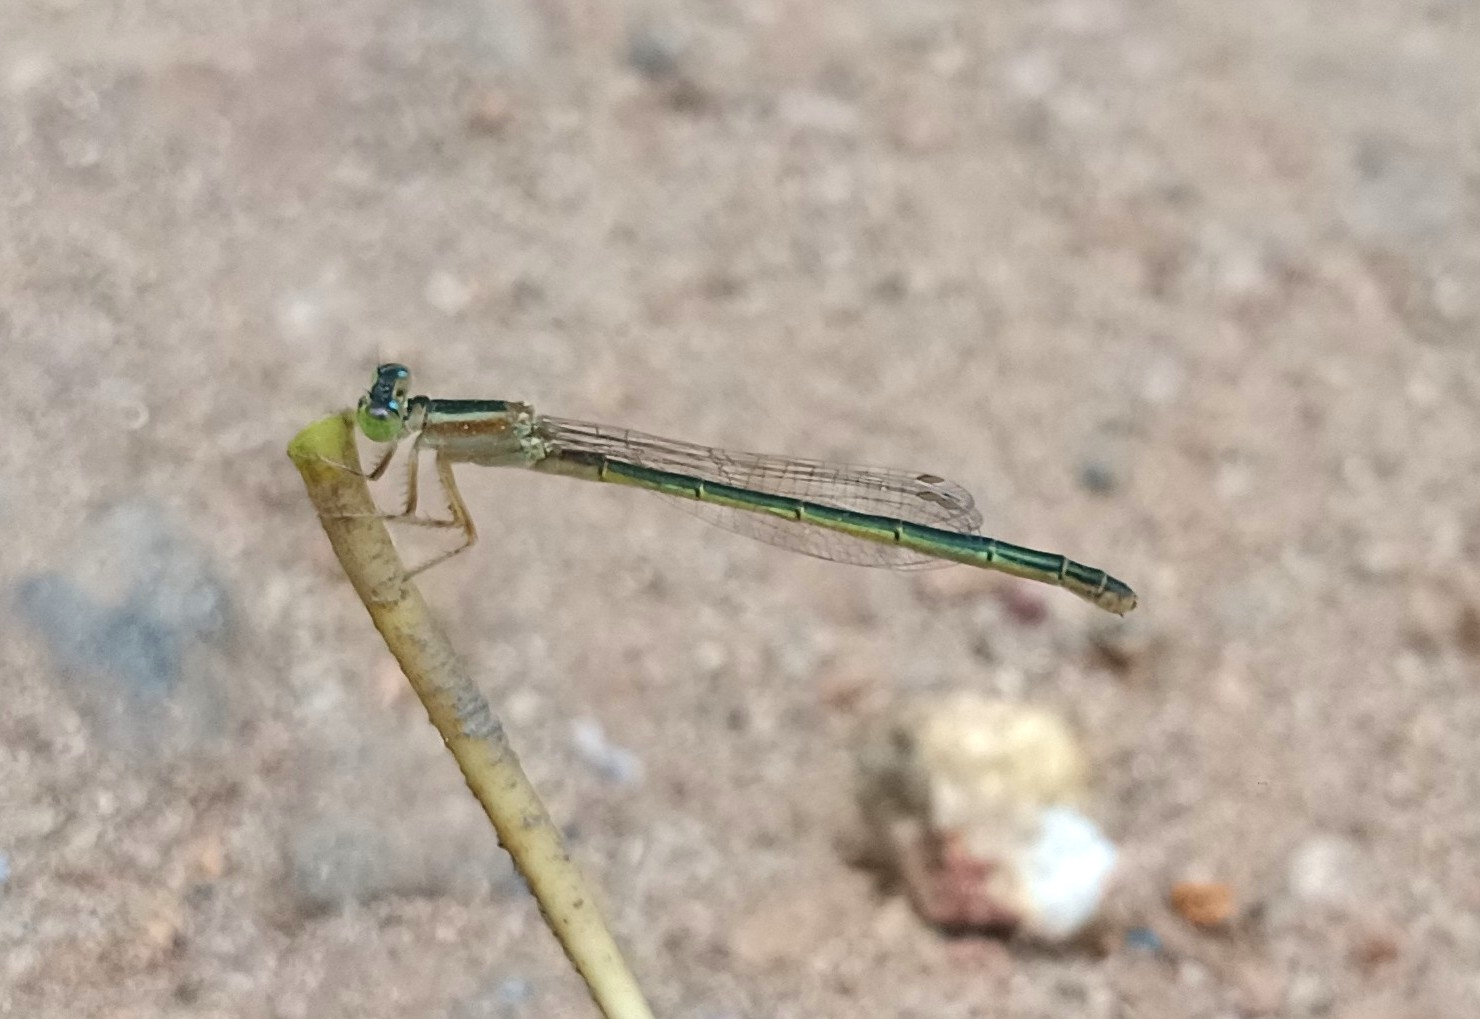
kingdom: Animalia
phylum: Arthropoda
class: Insecta
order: Odonata
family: Coenagrionidae
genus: Ischnura
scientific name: Ischnura senegalensis
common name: Tropical bluetail
